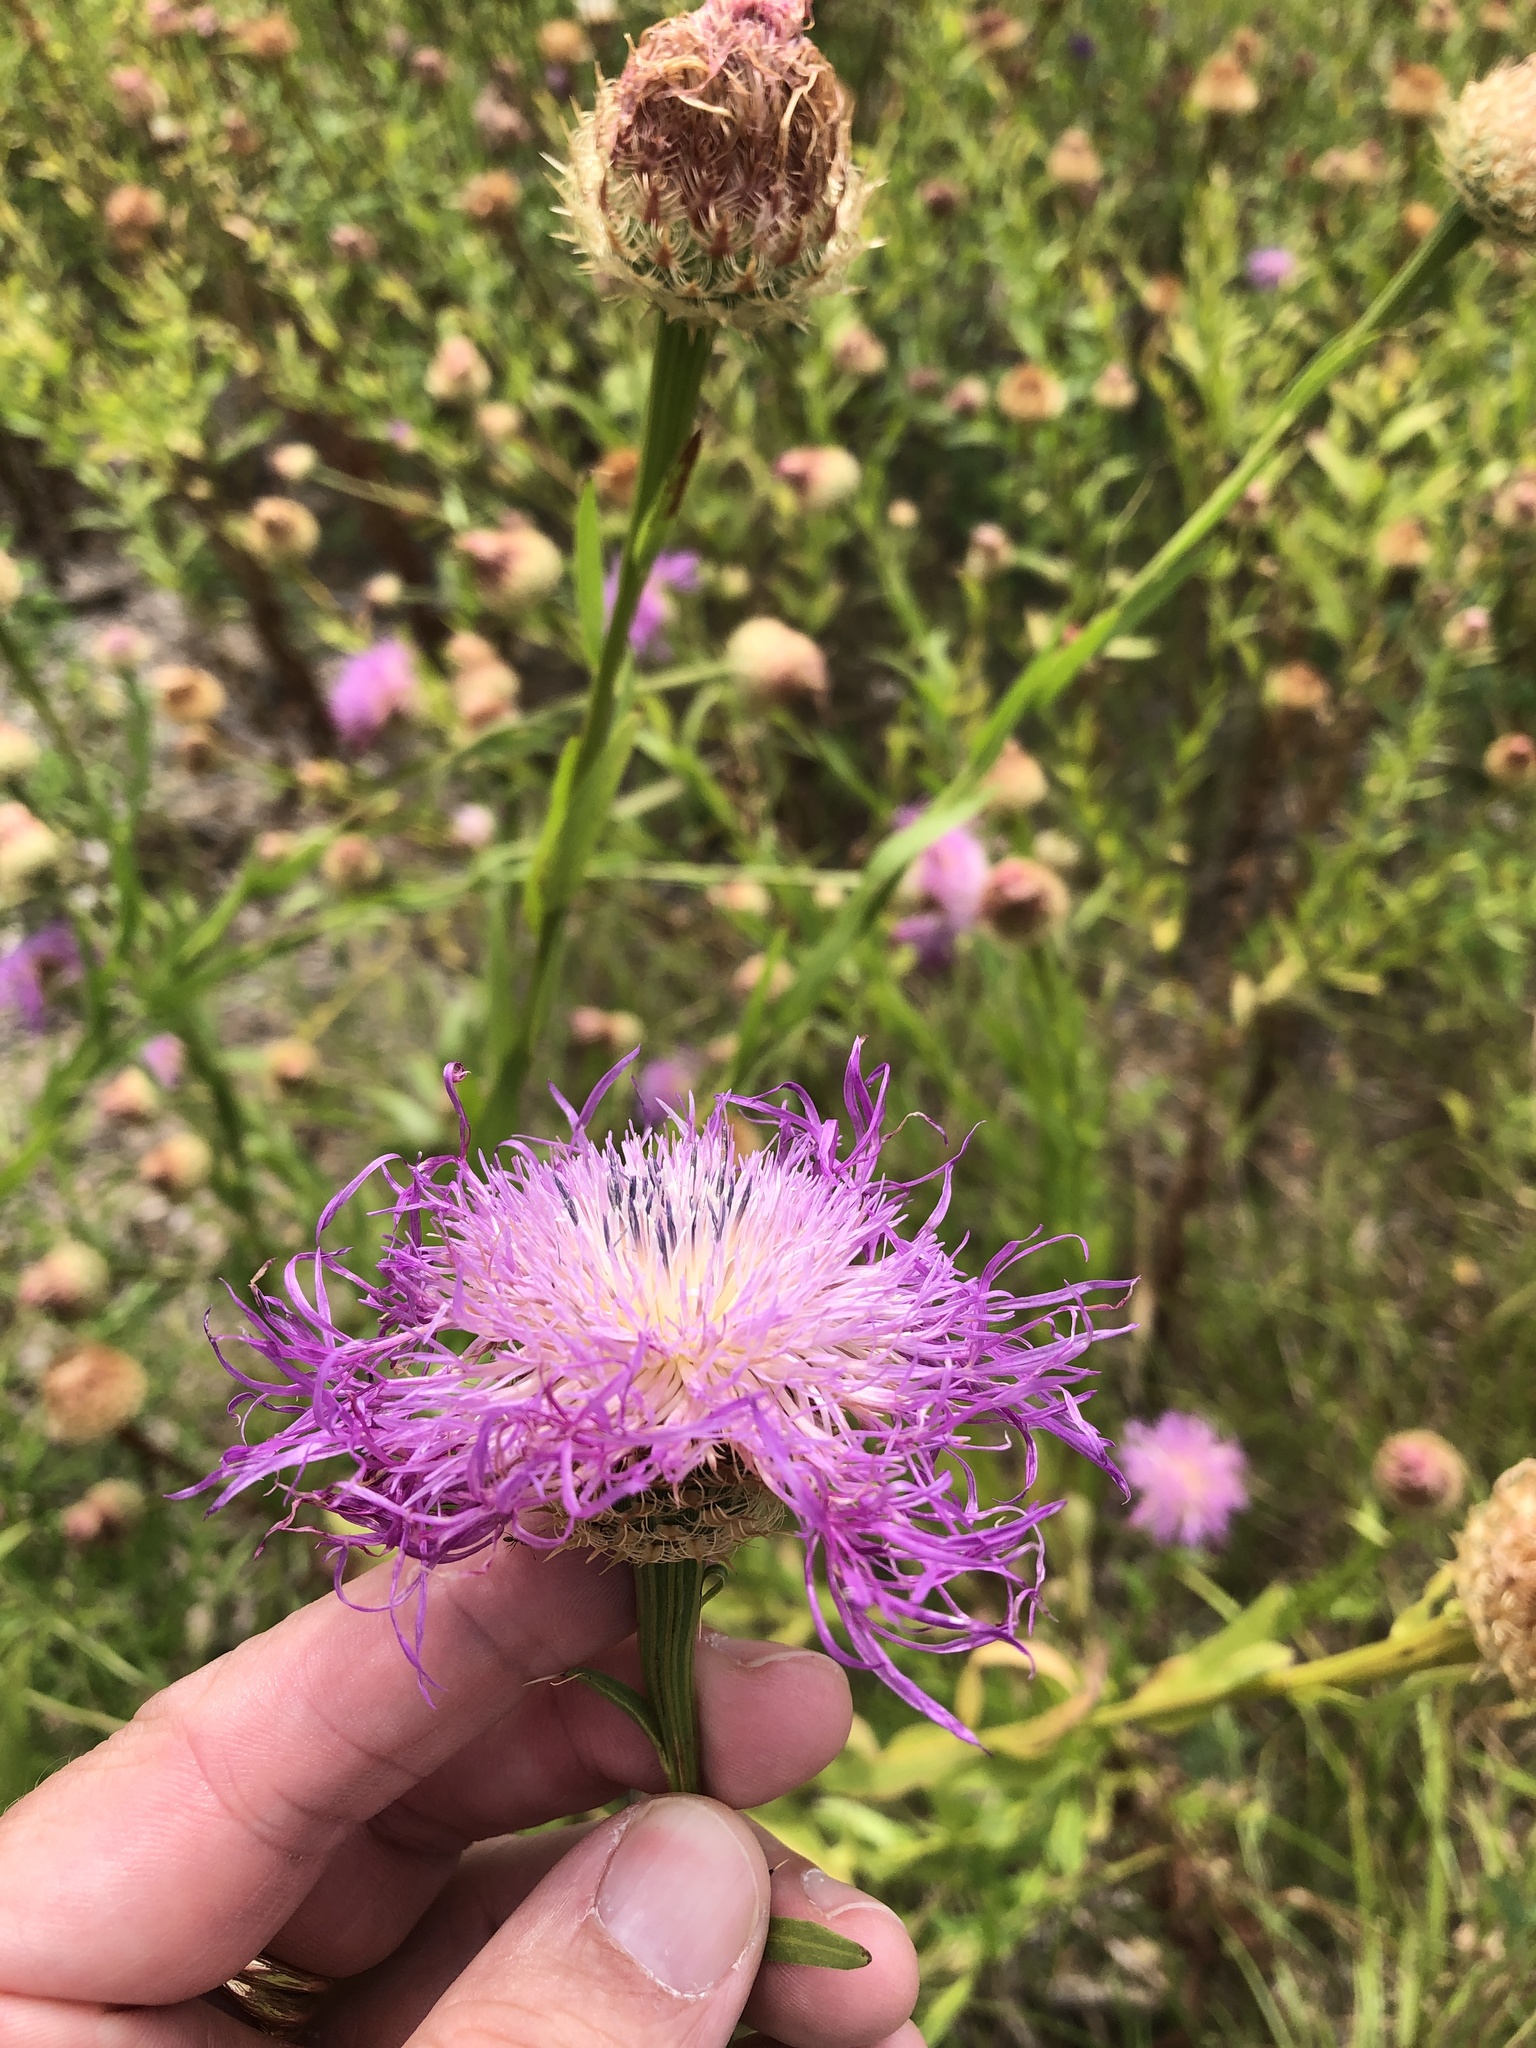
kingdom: Plantae
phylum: Tracheophyta
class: Magnoliopsida
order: Asterales
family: Asteraceae
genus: Plectocephalus
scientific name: Plectocephalus americanus
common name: American basket-flower
